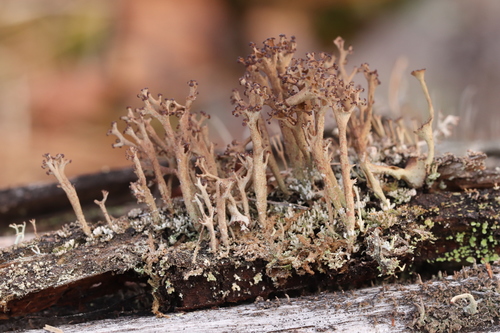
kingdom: Fungi
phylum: Ascomycota
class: Lecanoromycetes
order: Lecanorales
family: Cladoniaceae
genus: Cladonia
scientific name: Cladonia crispata
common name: Organ-pipe lichen
